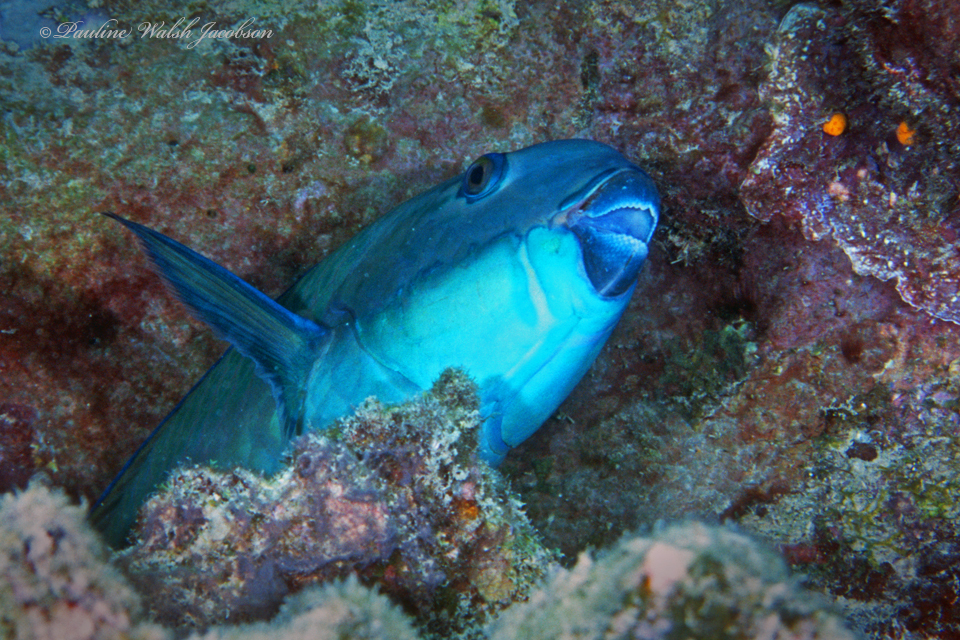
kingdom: Animalia
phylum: Chordata
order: Perciformes
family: Scaridae
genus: Chlorurus
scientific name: Chlorurus microrhinos
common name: Steephead parrotfish
